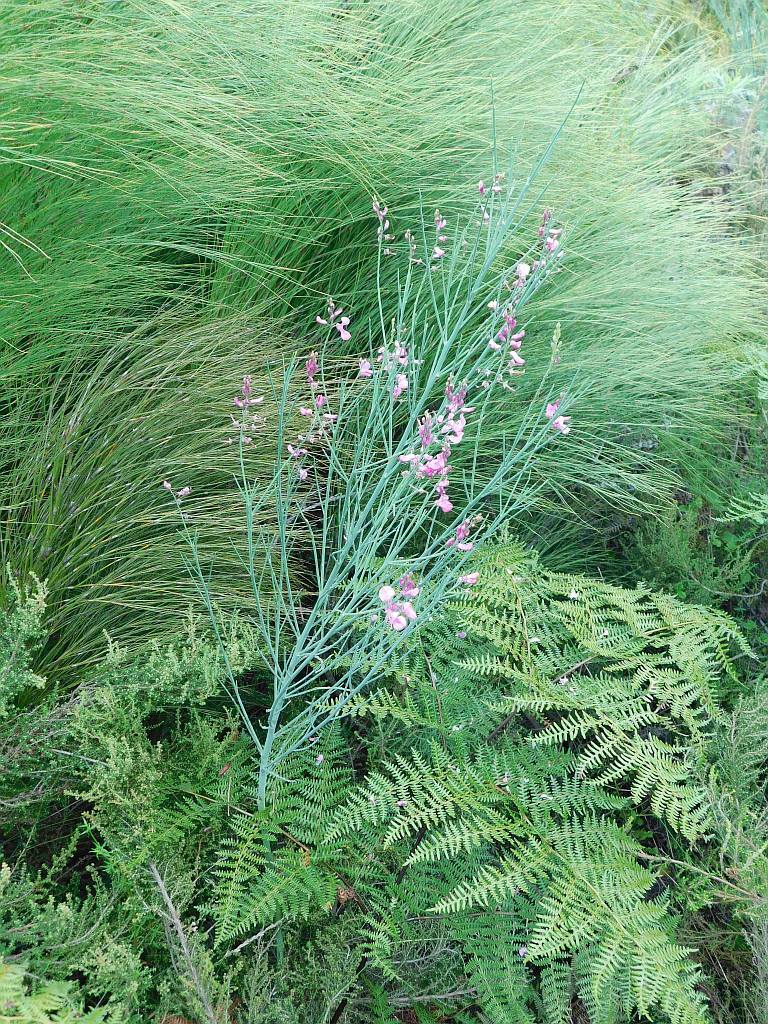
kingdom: Plantae
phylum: Tracheophyta
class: Magnoliopsida
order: Fabales
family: Fabaceae
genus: Indigofera
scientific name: Indigofera filifolia
